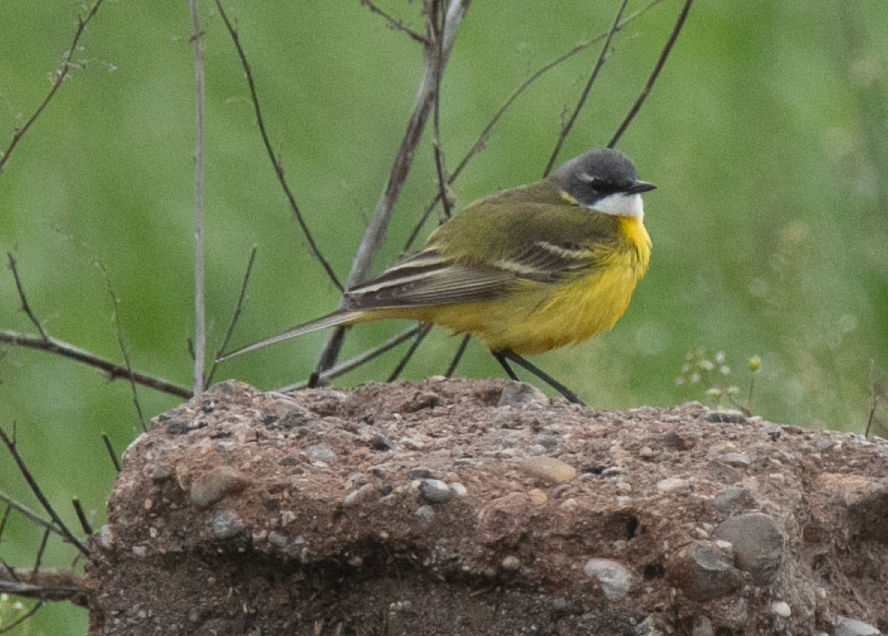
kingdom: Animalia
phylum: Chordata
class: Aves
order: Passeriformes
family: Motacillidae
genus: Motacilla
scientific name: Motacilla flava
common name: Western yellow wagtail
